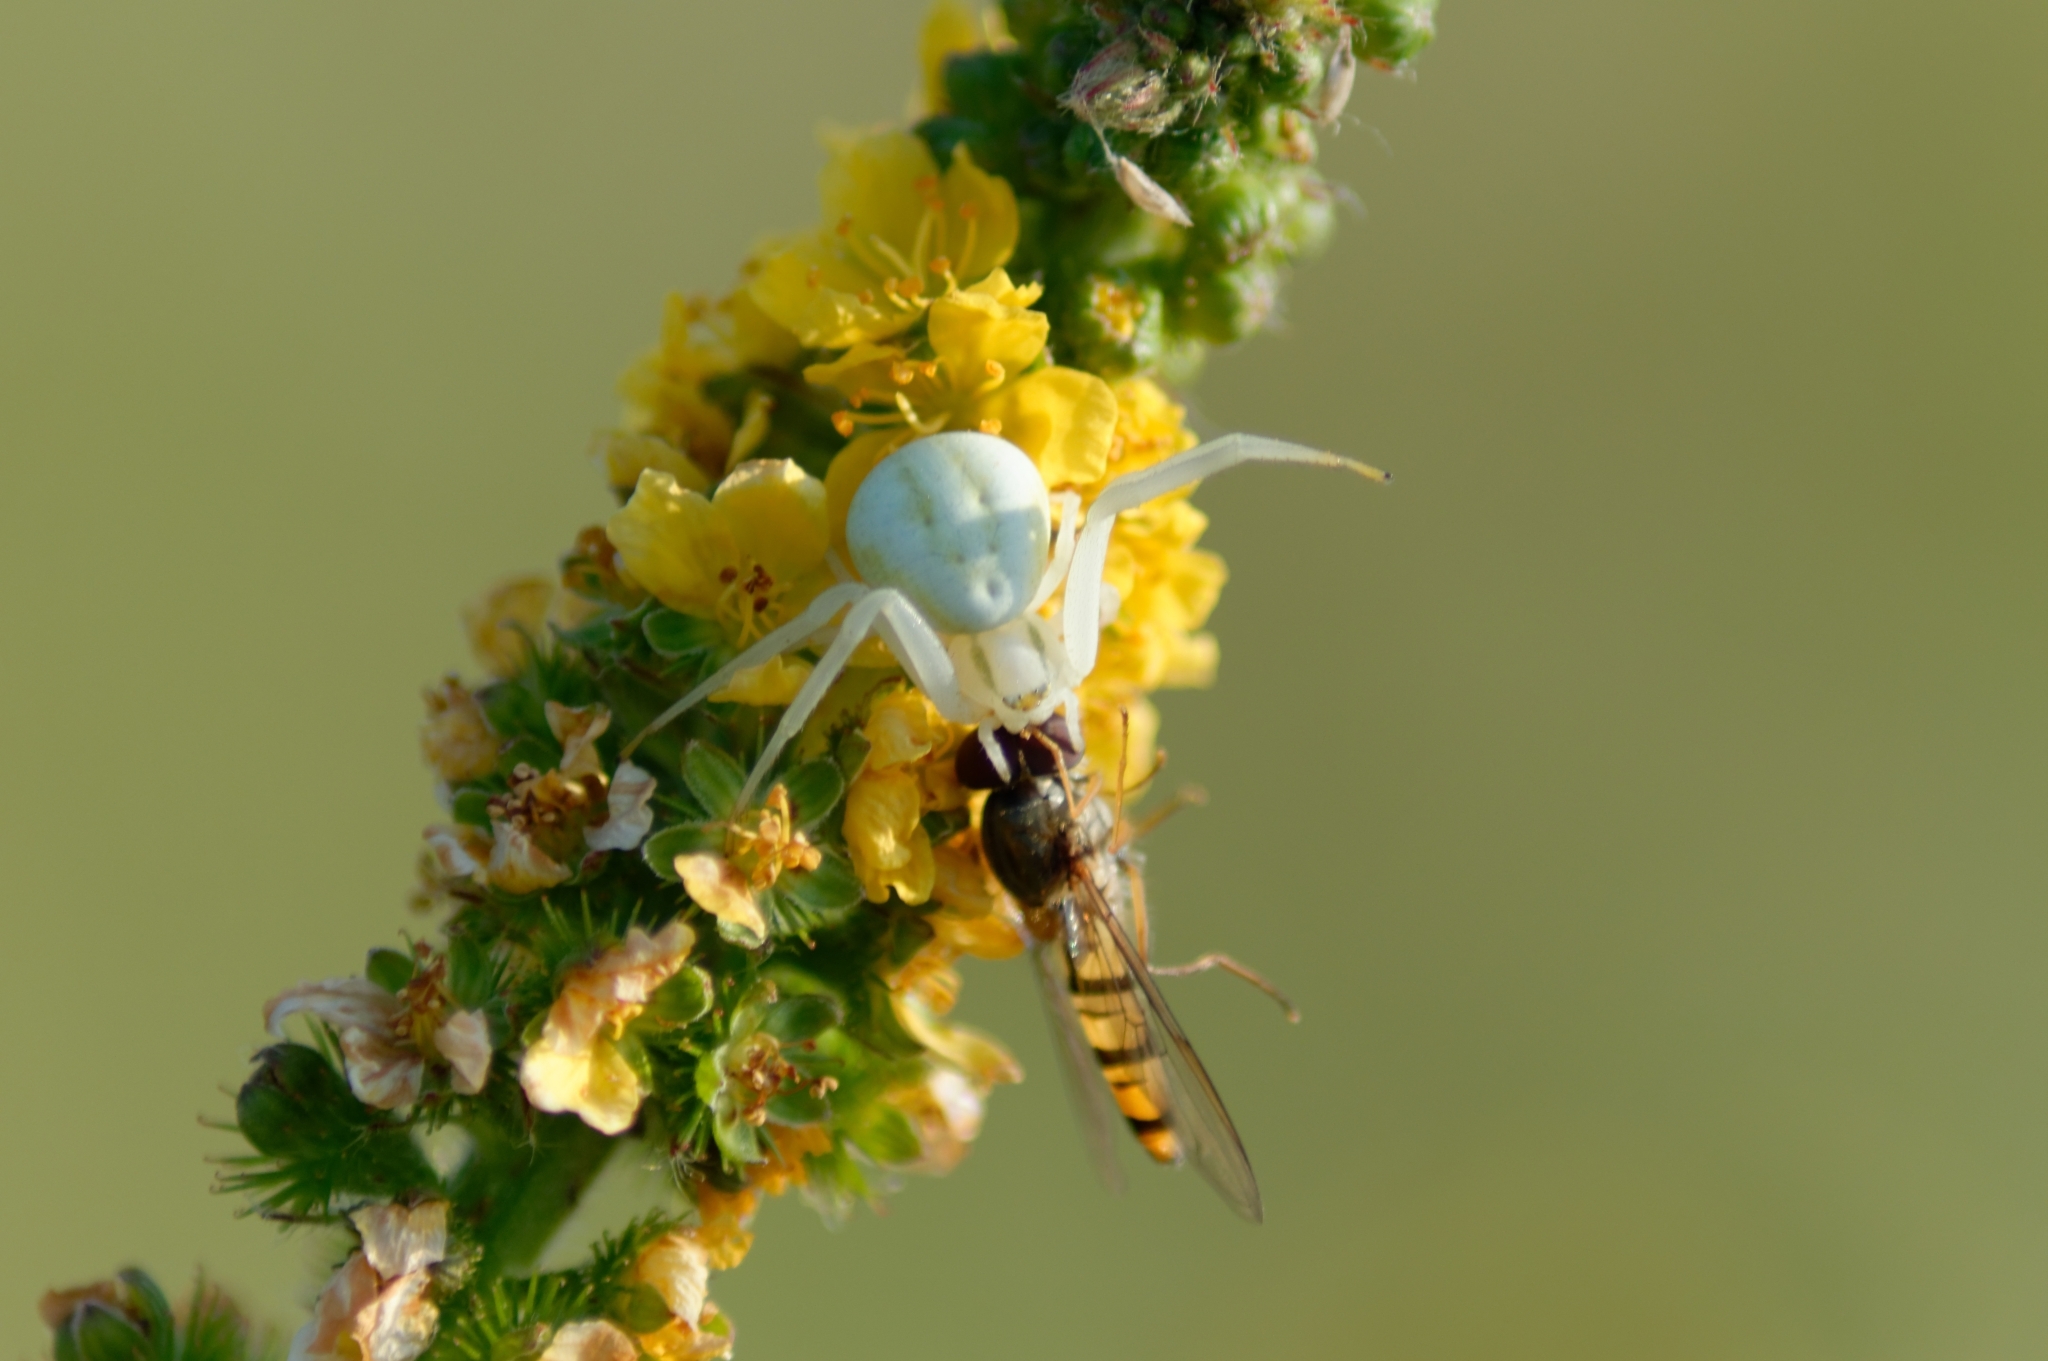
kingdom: Animalia
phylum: Arthropoda
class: Arachnida
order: Araneae
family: Thomisidae
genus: Misumena
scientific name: Misumena vatia
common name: Goldenrod crab spider
